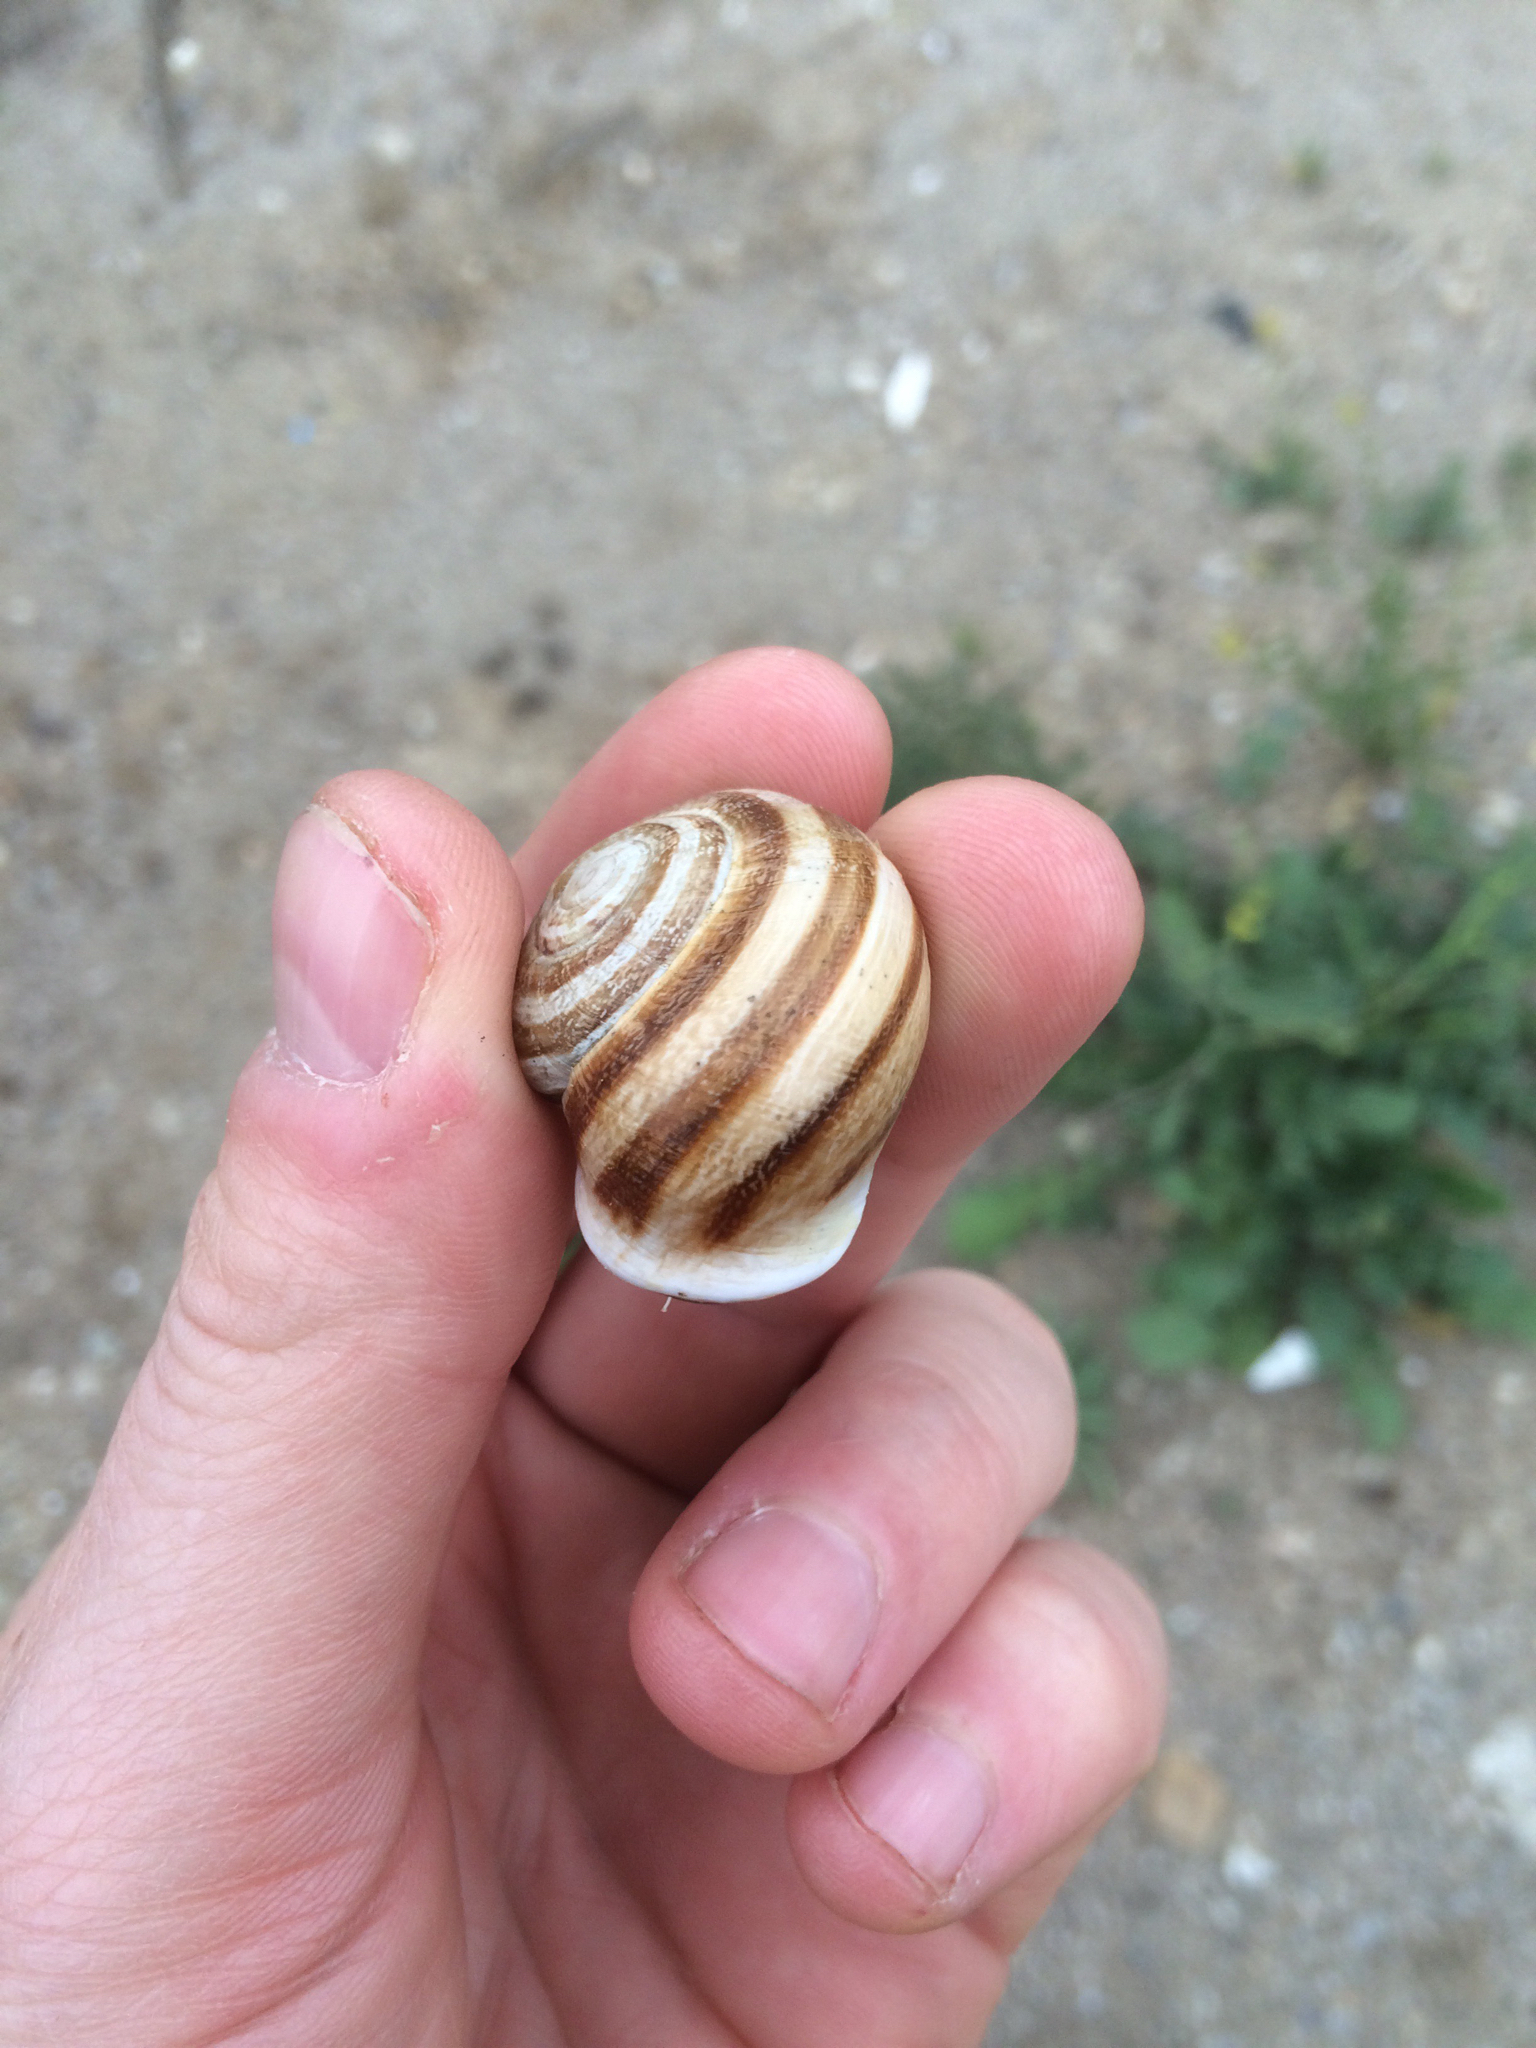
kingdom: Animalia
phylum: Mollusca
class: Gastropoda
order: Stylommatophora
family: Helicidae
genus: Otala
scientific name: Otala lactea
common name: Milk snail
